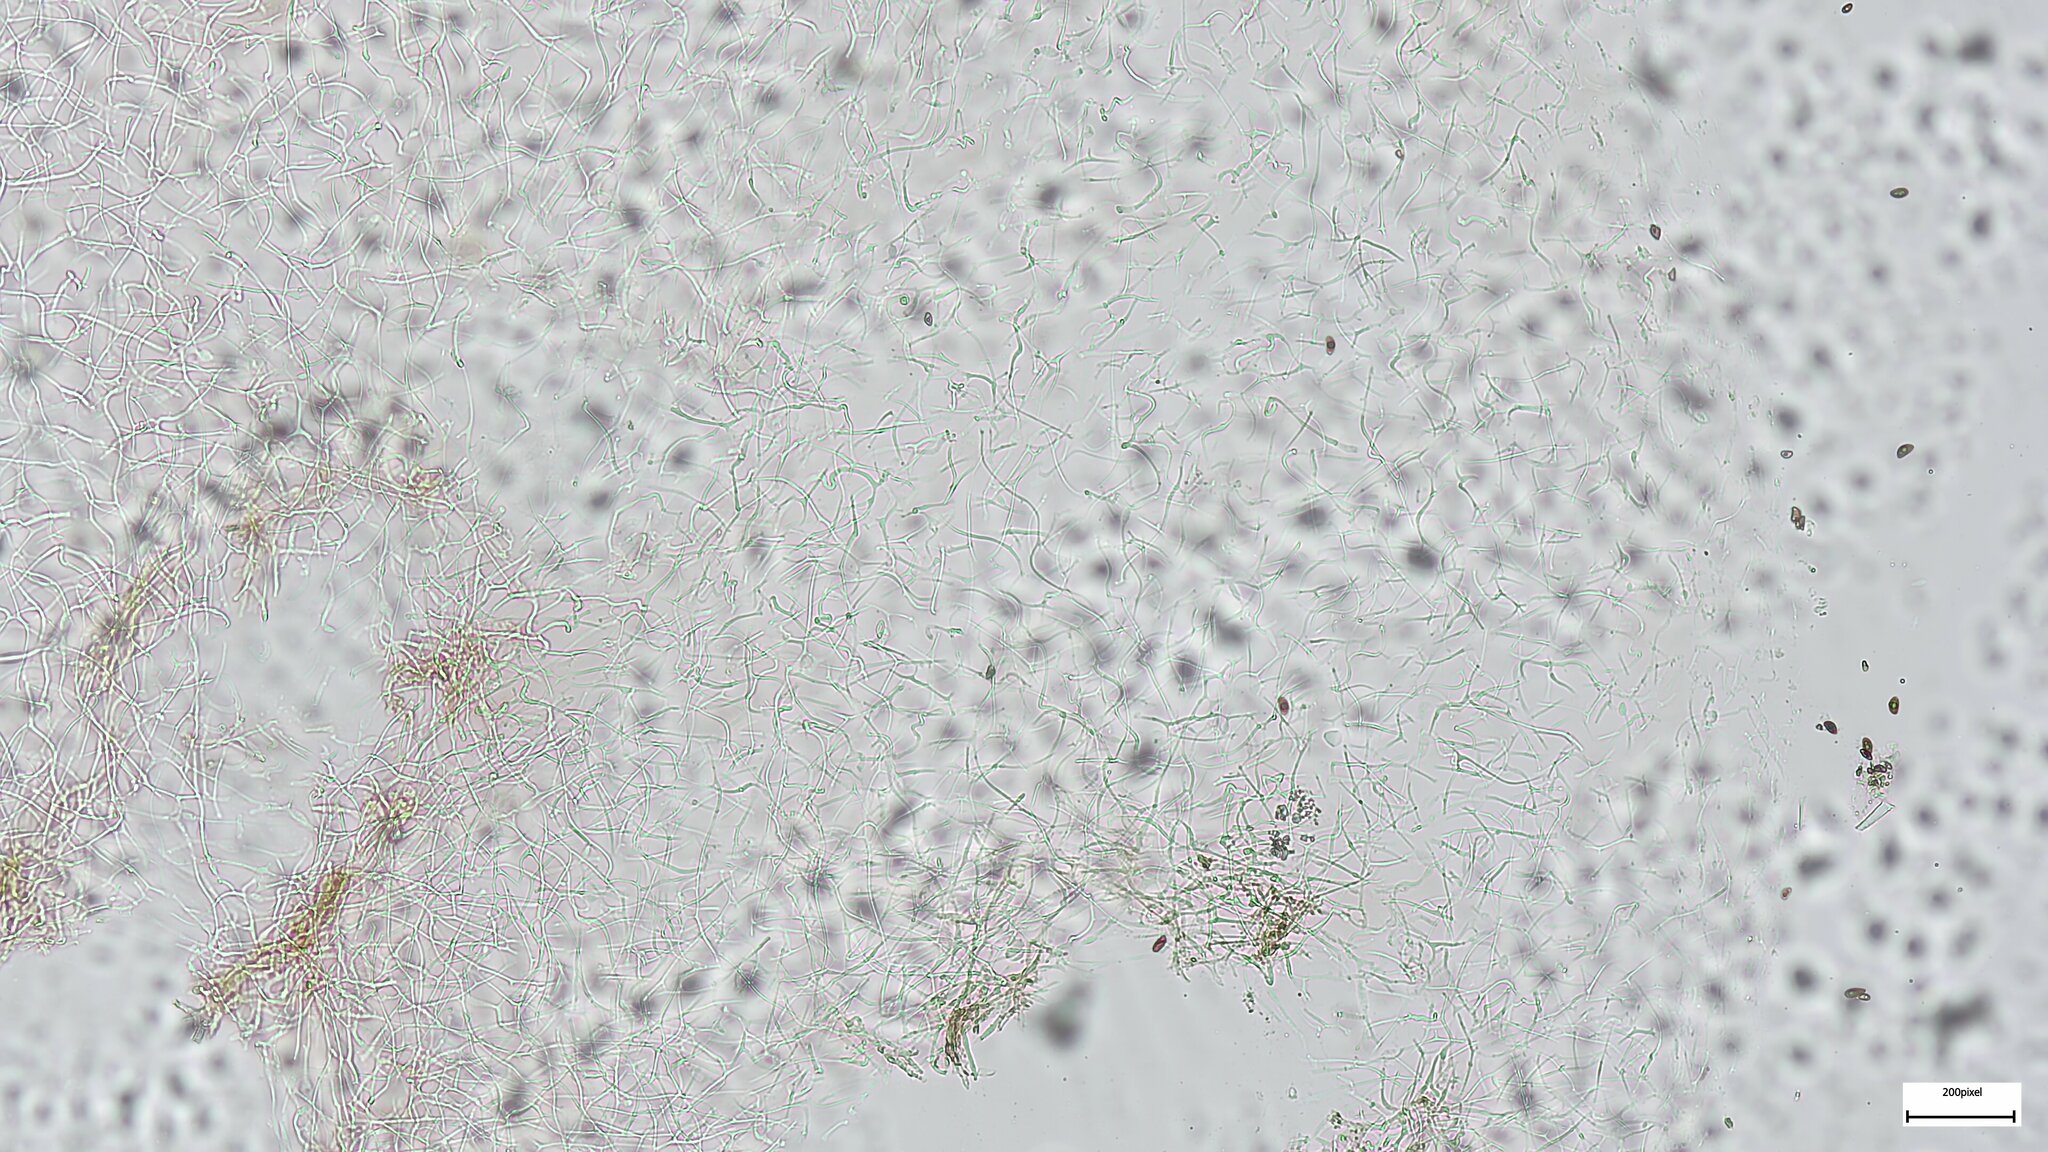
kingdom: Fungi
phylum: Ascomycota
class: Leotiomycetes
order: Phacidiales
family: Phacidiaceae
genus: Bulgaria
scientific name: Bulgaria inquinans
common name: Black bulgar
